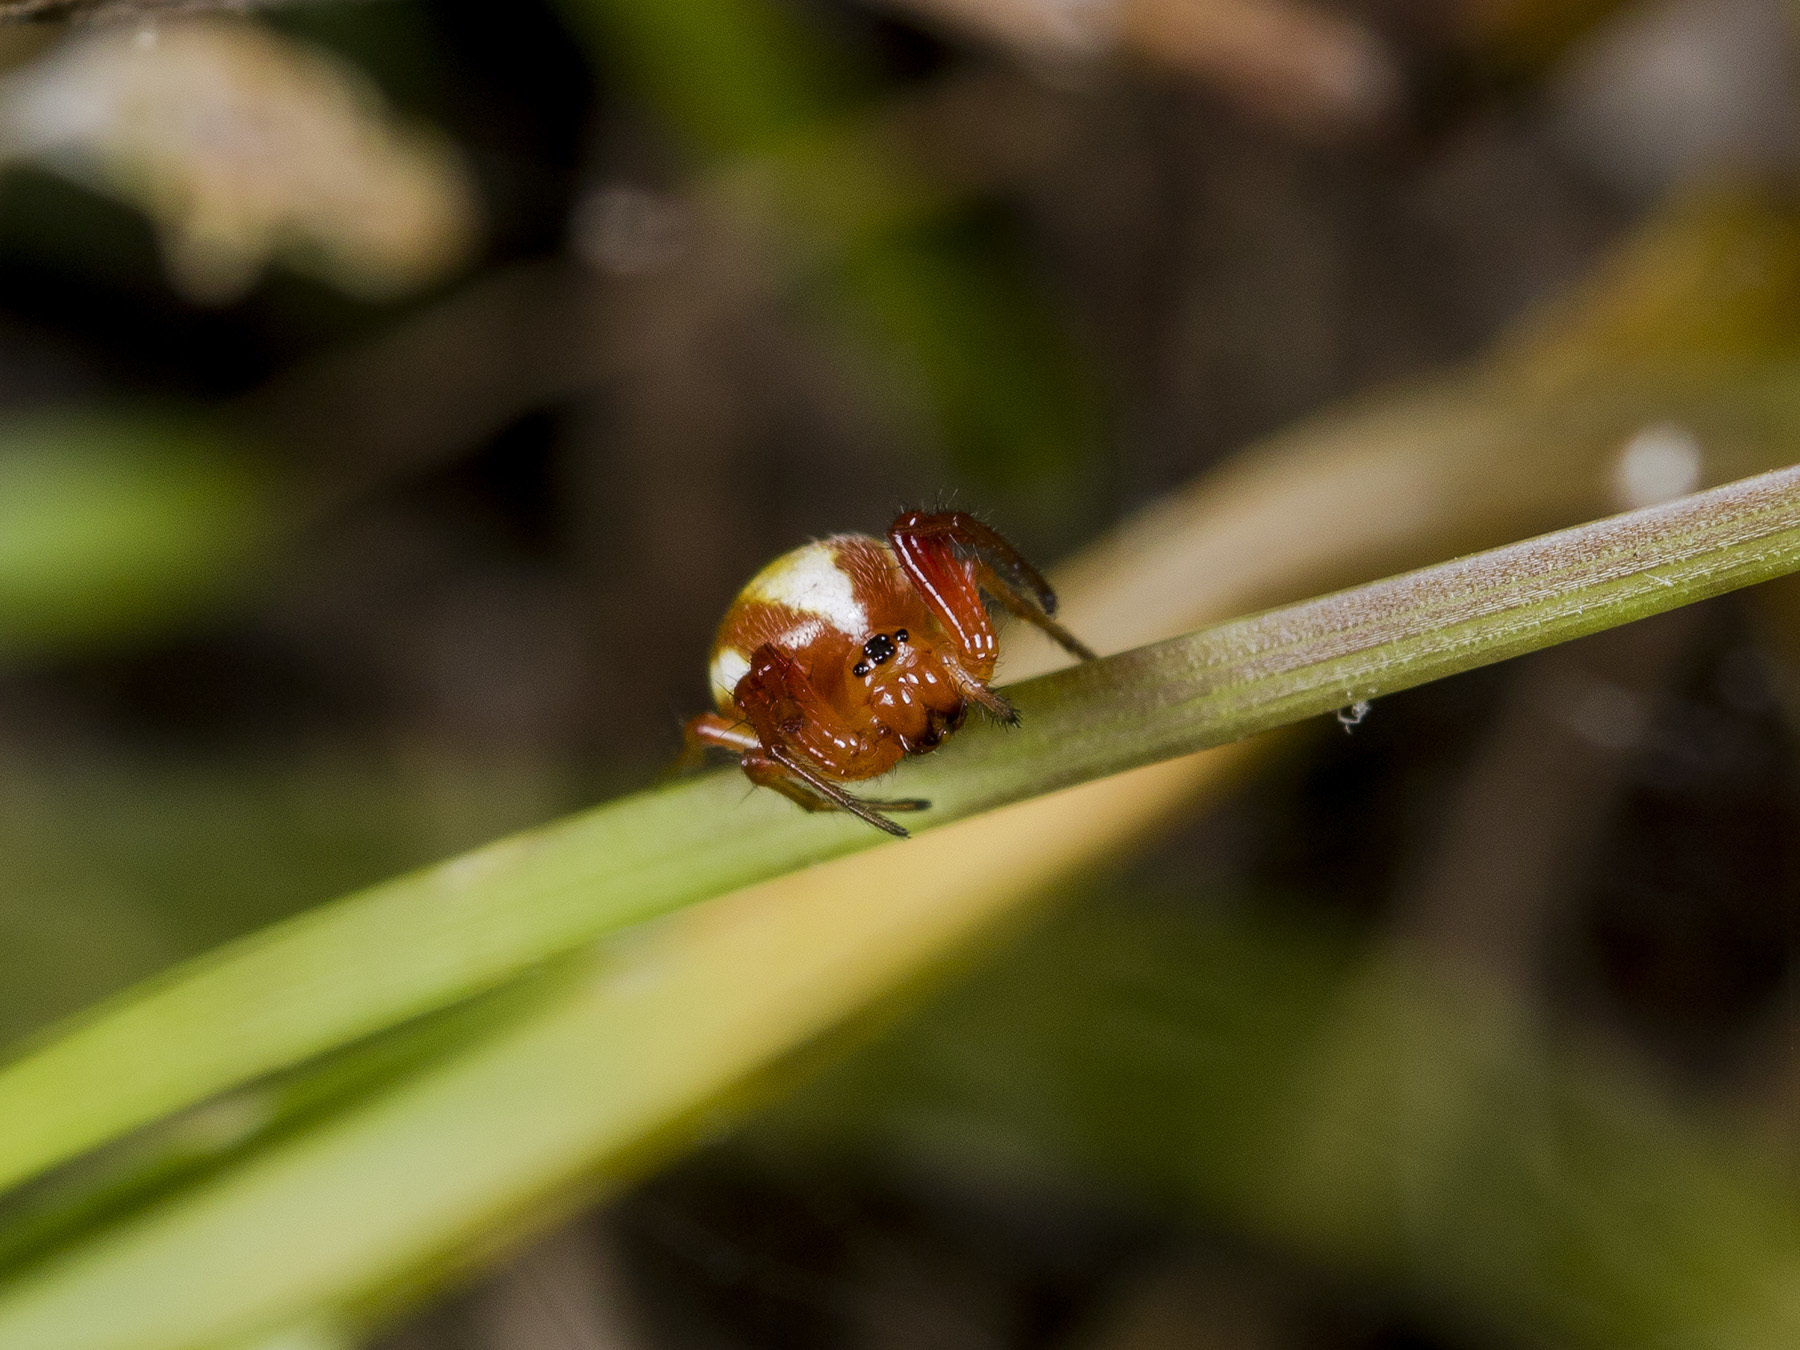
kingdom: Animalia
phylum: Arthropoda
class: Arachnida
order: Araneae
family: Araneidae
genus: Hypsosinga
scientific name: Hypsosinga pygmaea
